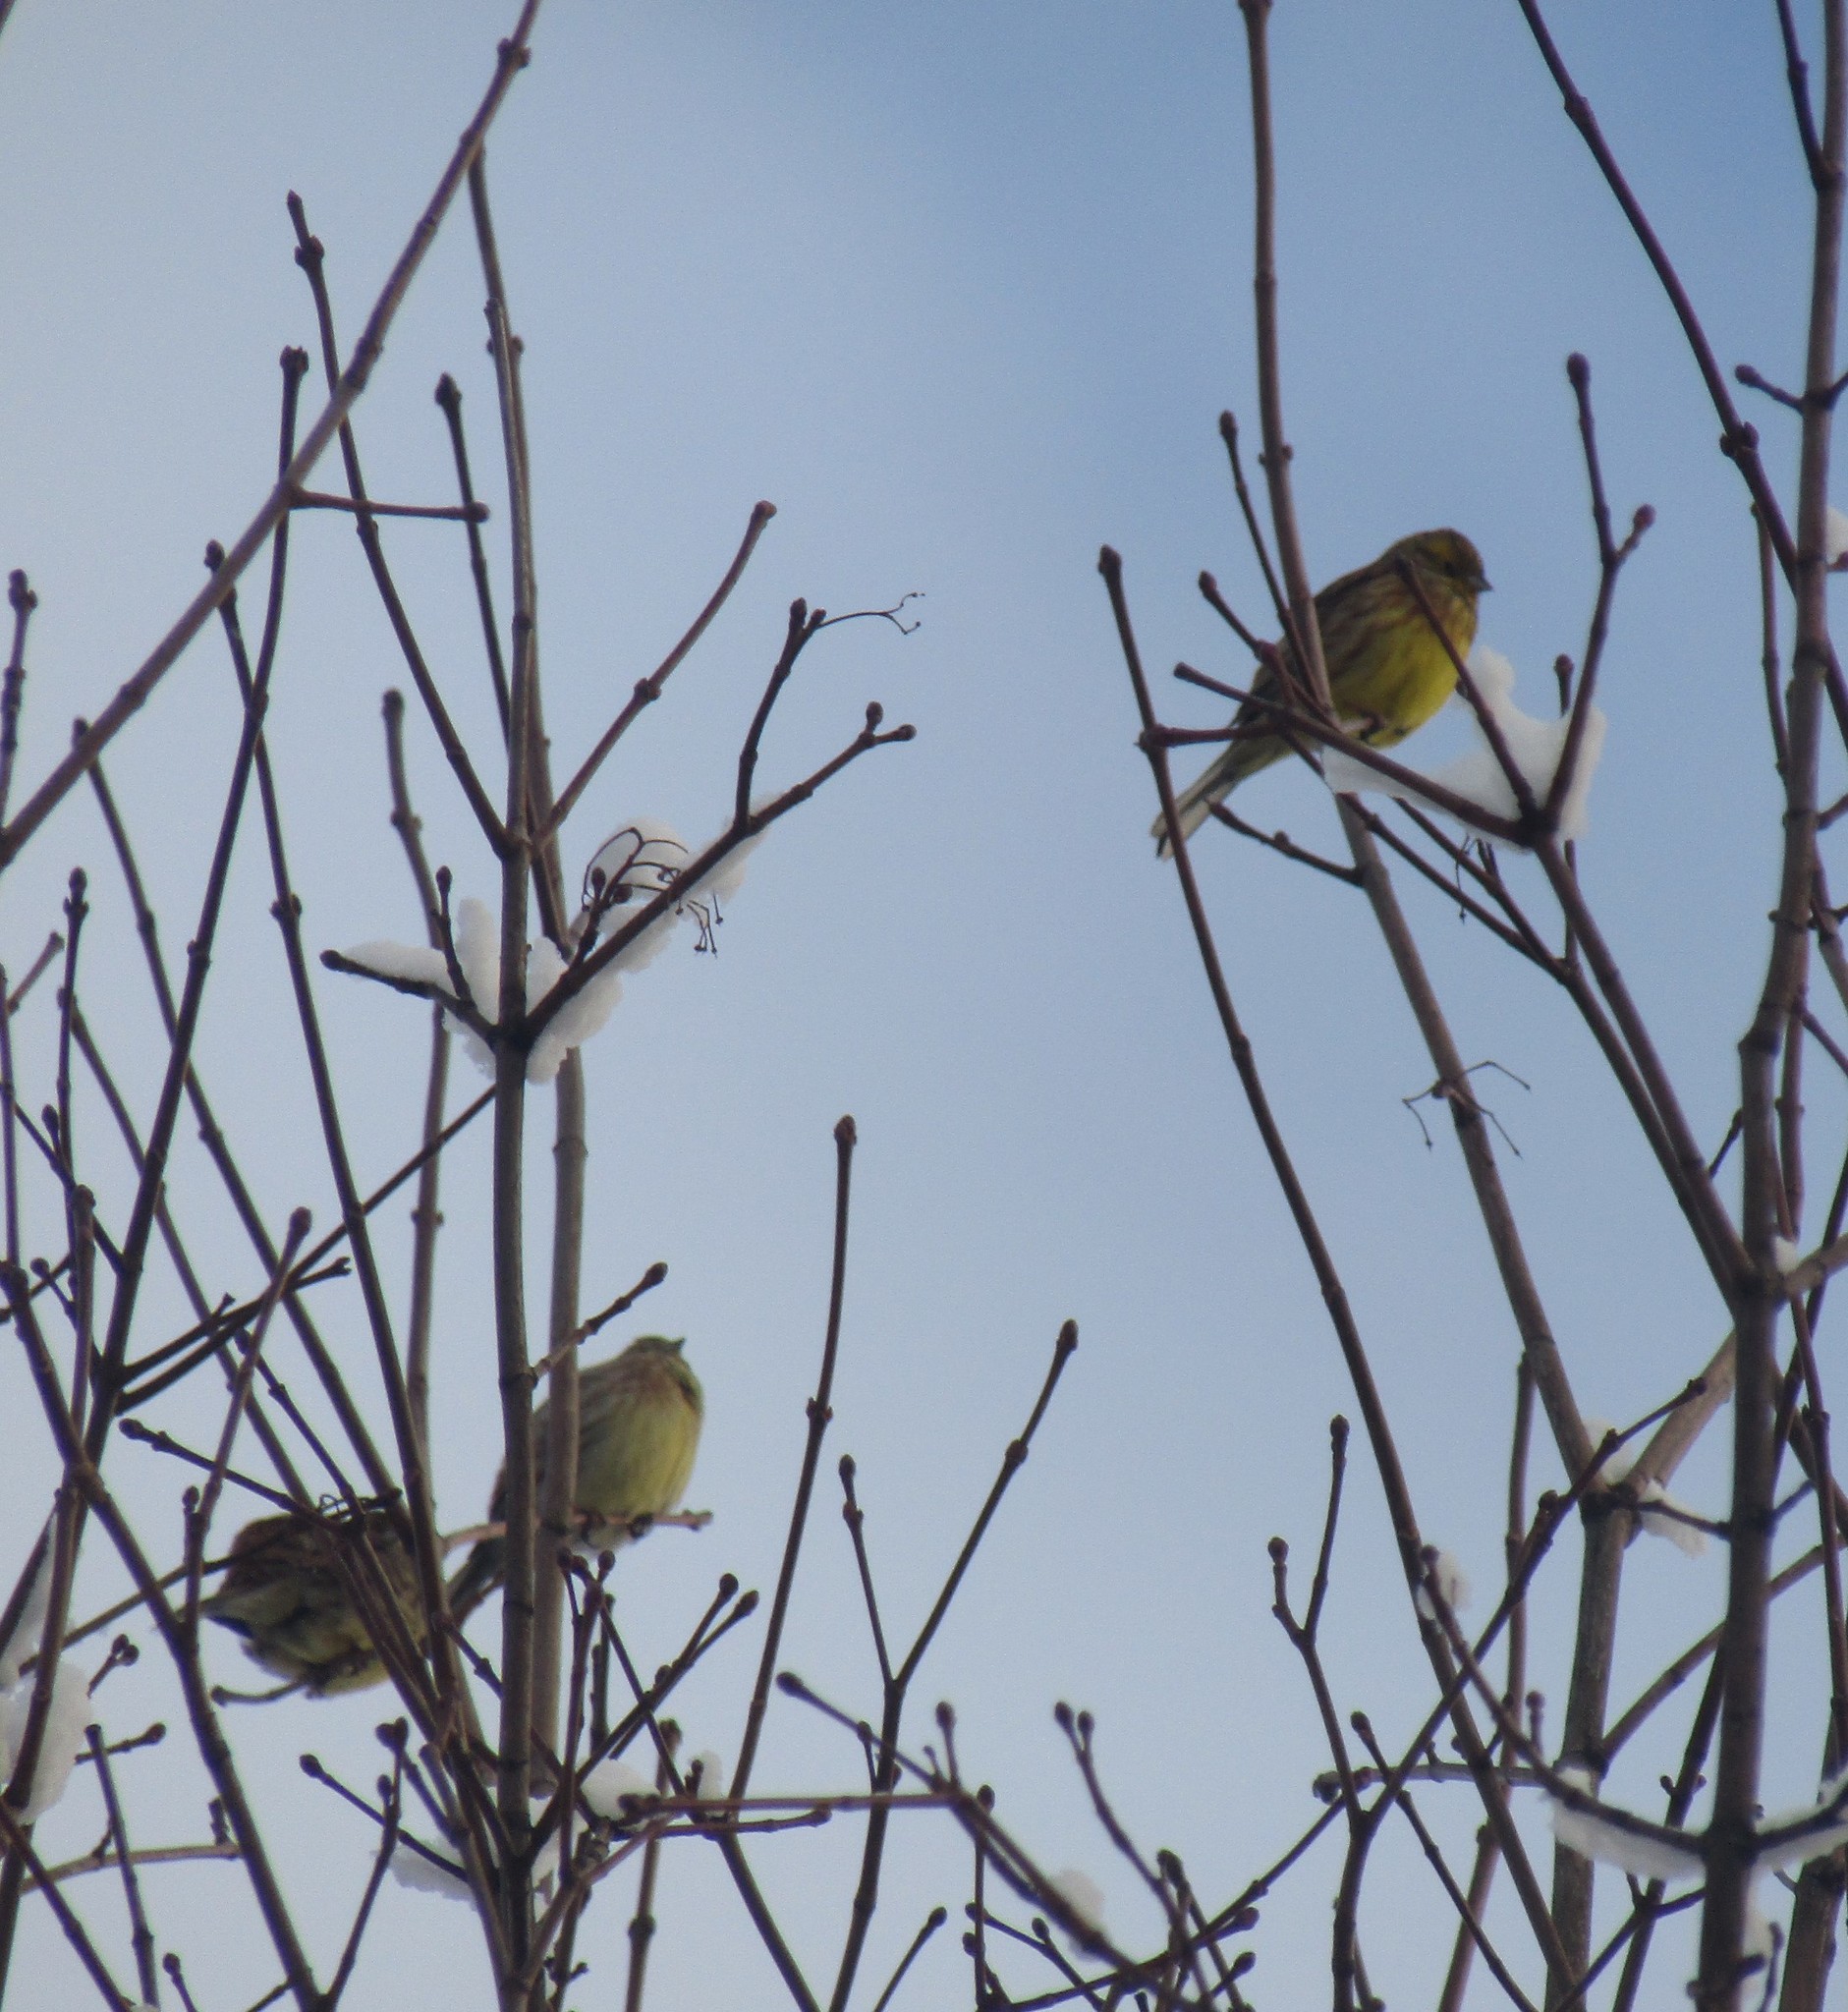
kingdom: Animalia
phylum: Chordata
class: Aves
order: Passeriformes
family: Emberizidae
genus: Emberiza
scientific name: Emberiza citrinella
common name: Yellowhammer
